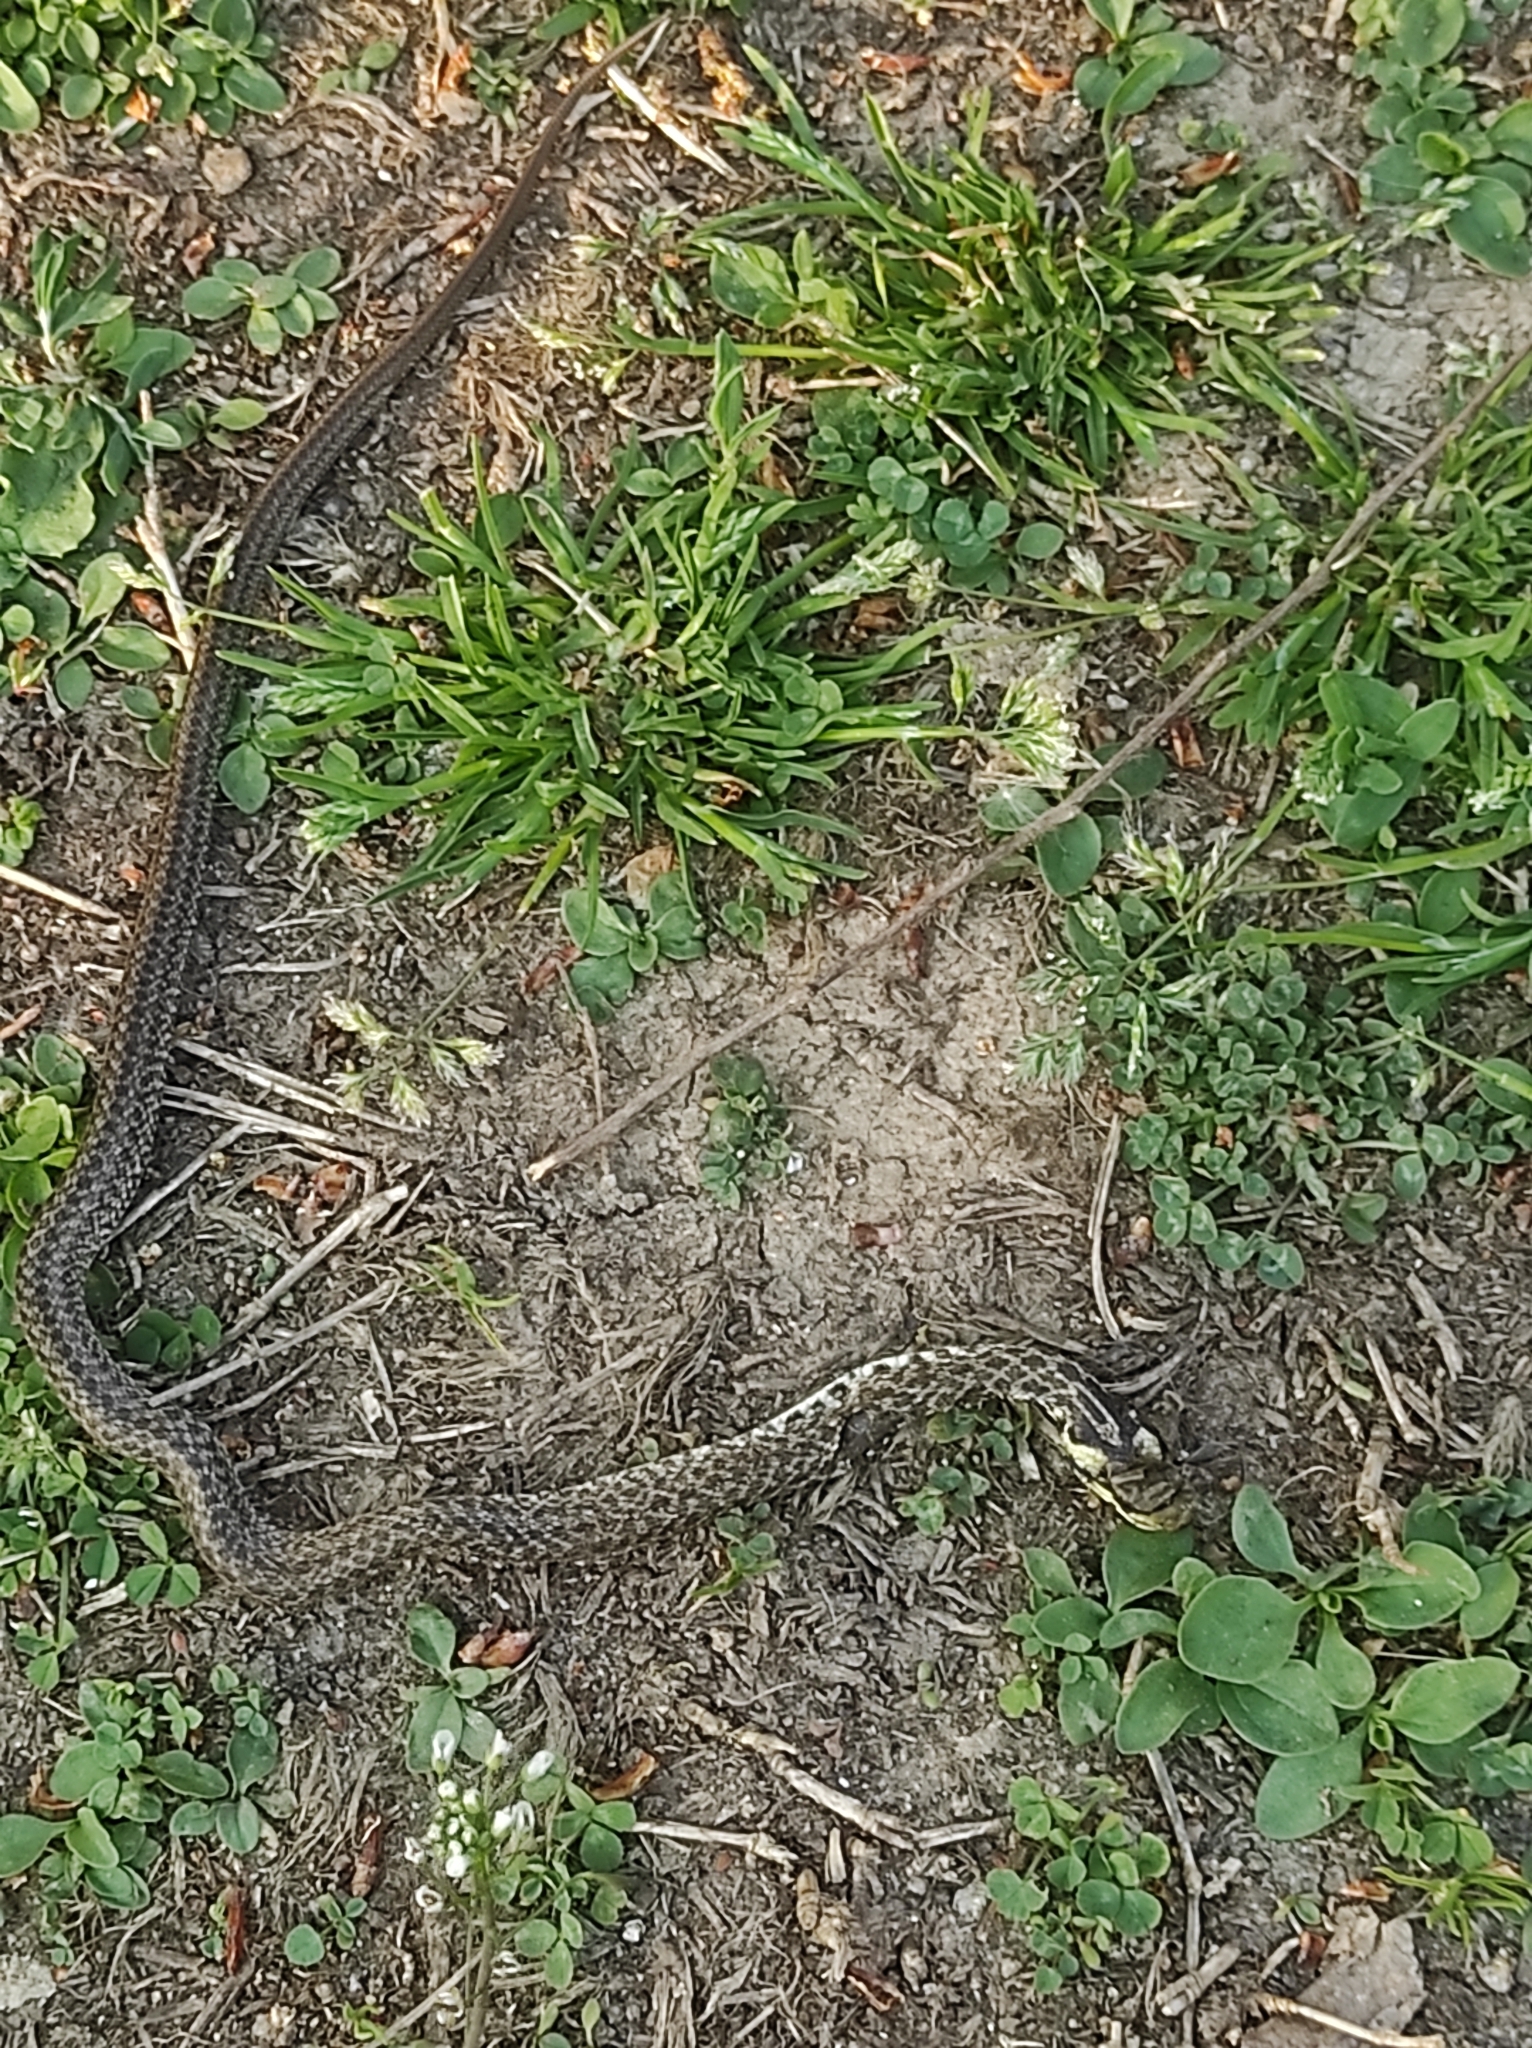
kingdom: Animalia
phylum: Chordata
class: Squamata
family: Colubridae
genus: Zamenis
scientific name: Zamenis longissimus
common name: Aesculapean snake
